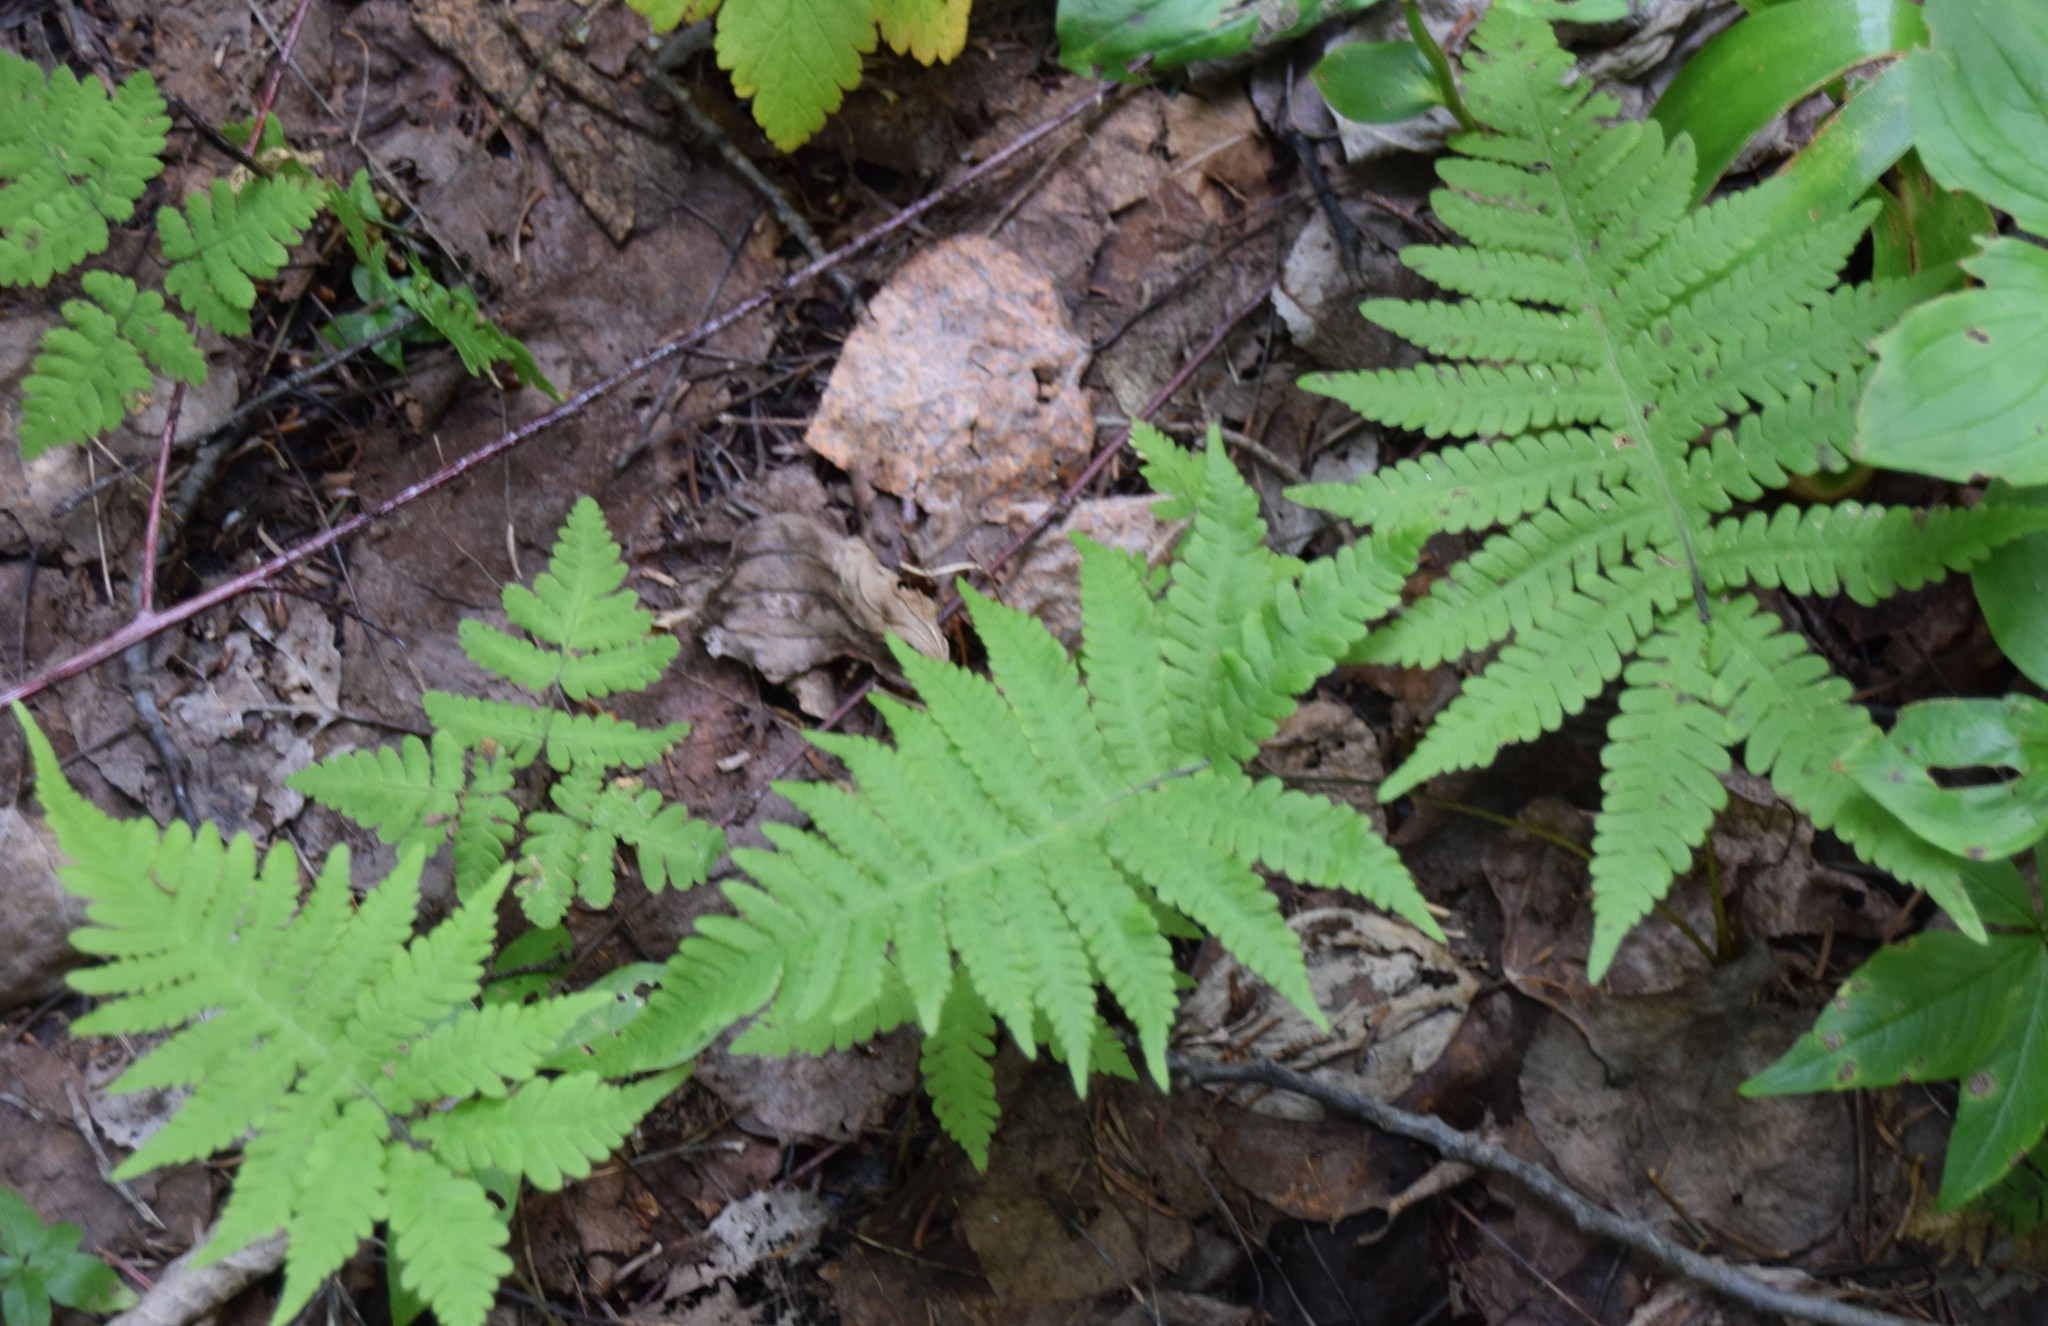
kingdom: Plantae
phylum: Tracheophyta
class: Polypodiopsida
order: Polypodiales
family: Thelypteridaceae
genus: Phegopteris
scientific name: Phegopteris connectilis
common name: Beech fern
